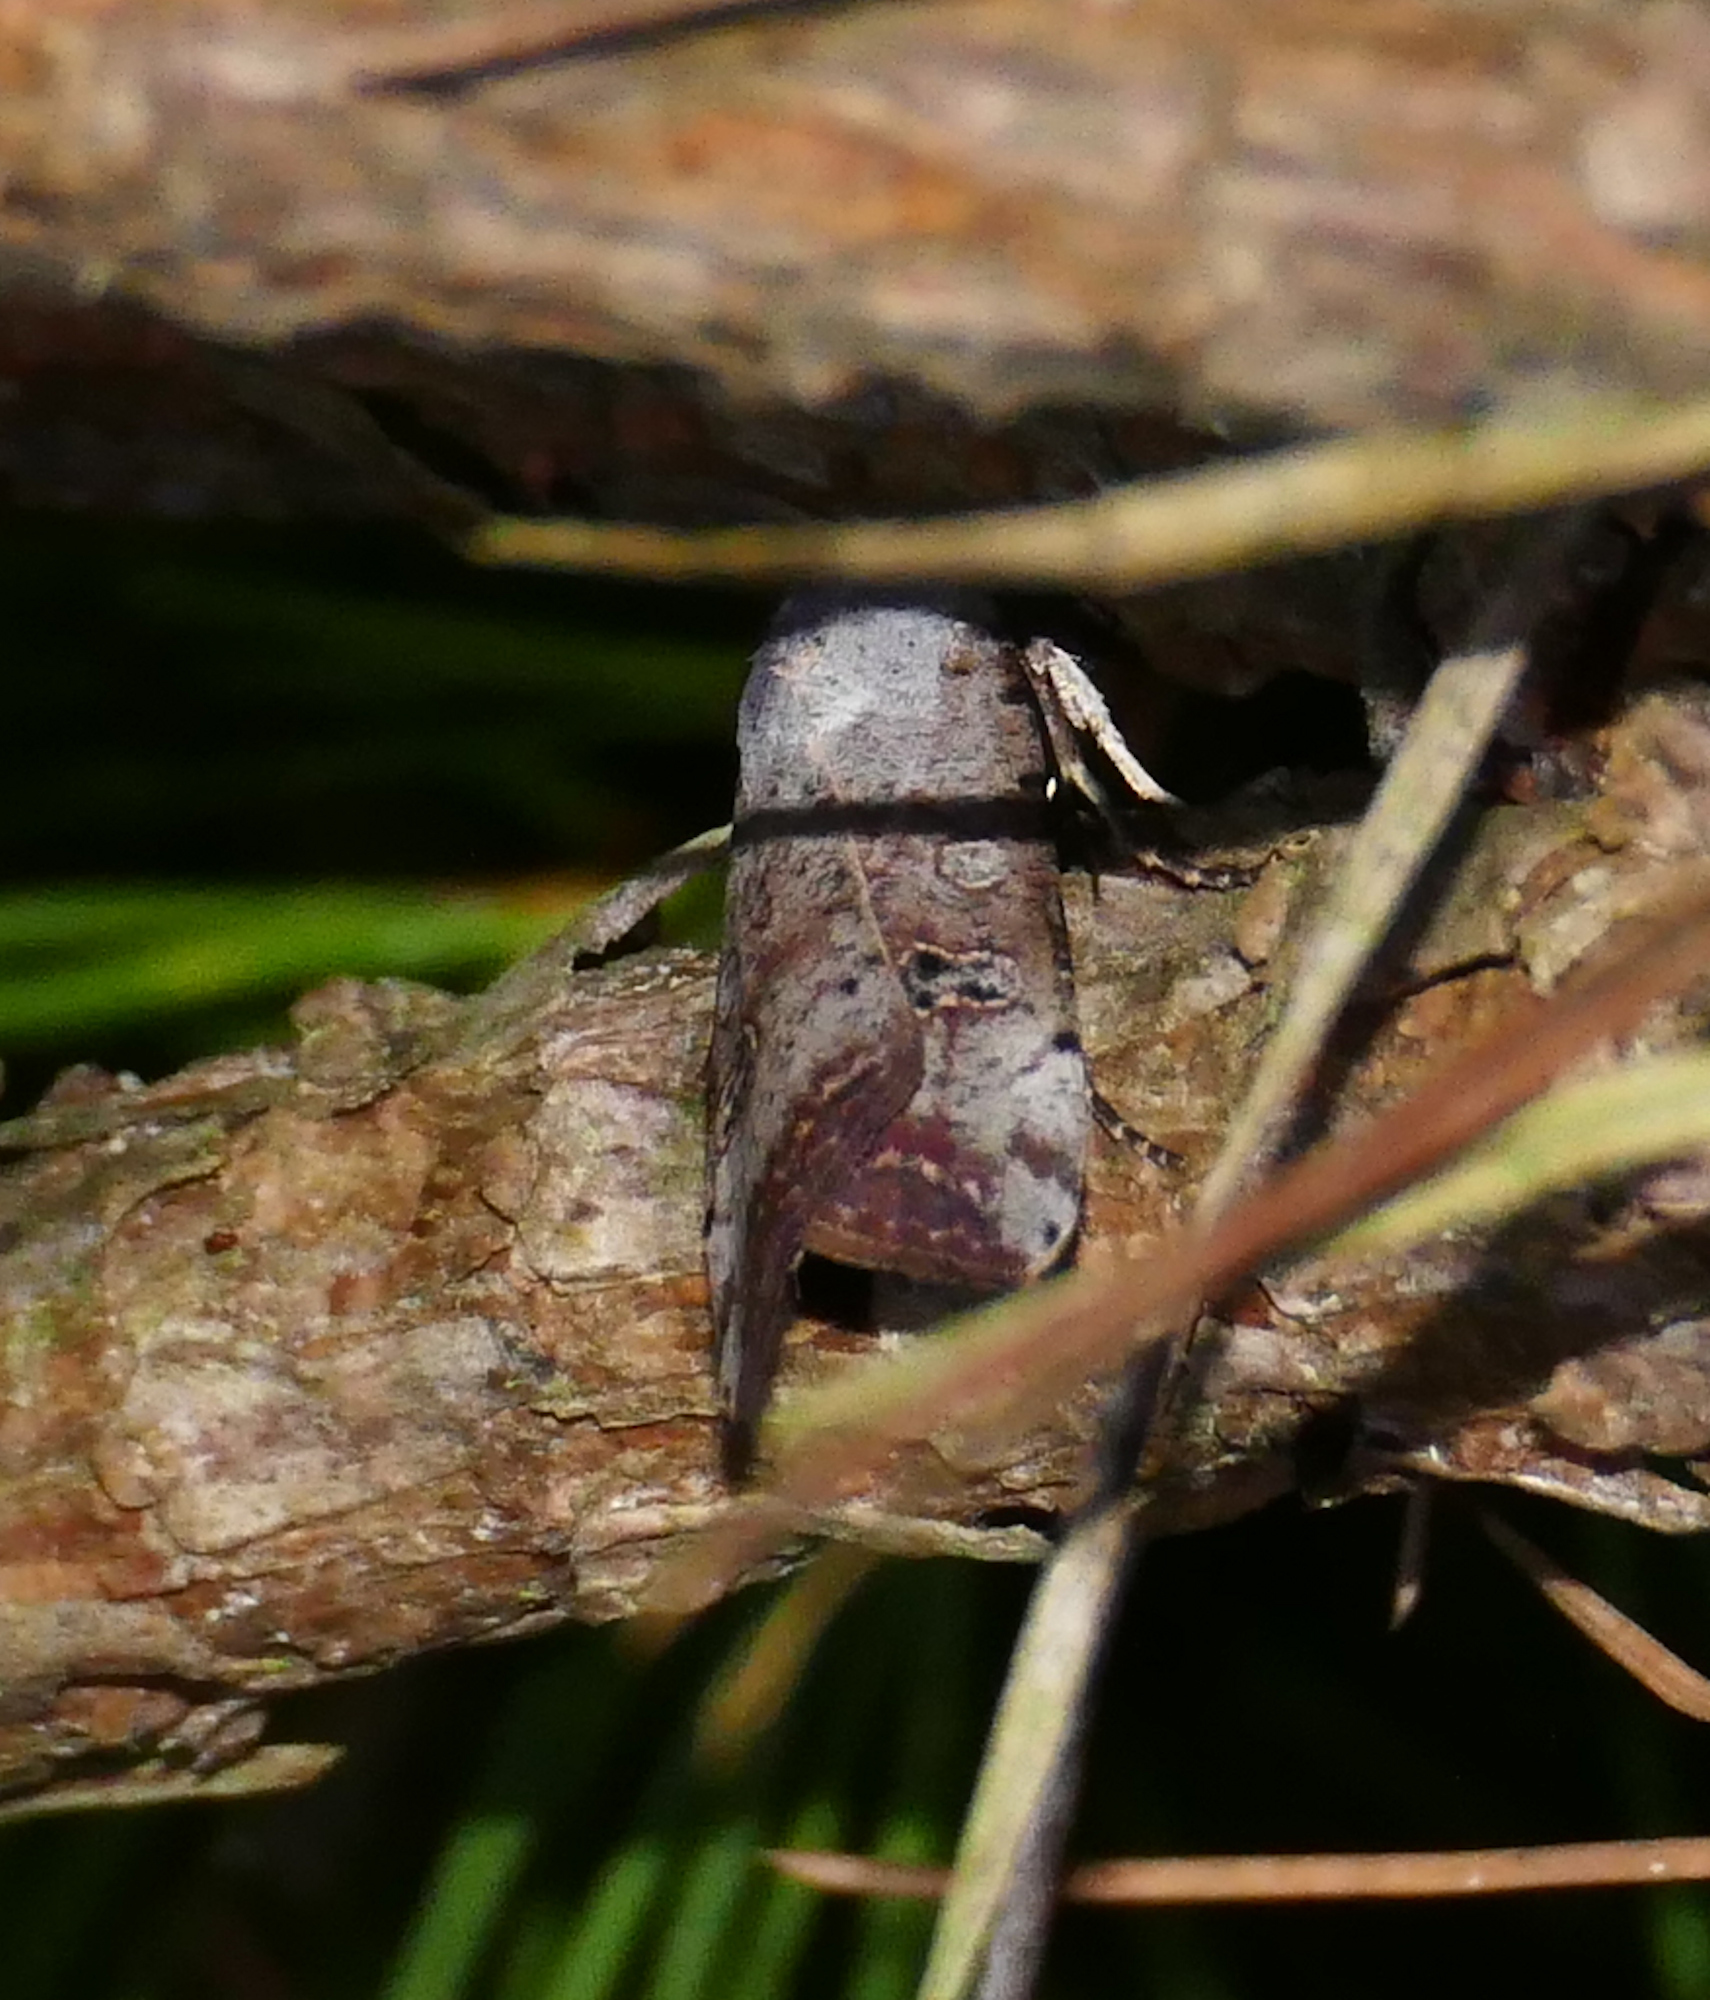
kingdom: Animalia
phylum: Arthropoda
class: Insecta
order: Lepidoptera
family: Noctuidae
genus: Anicla
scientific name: Anicla infecta
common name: Green cutworm
